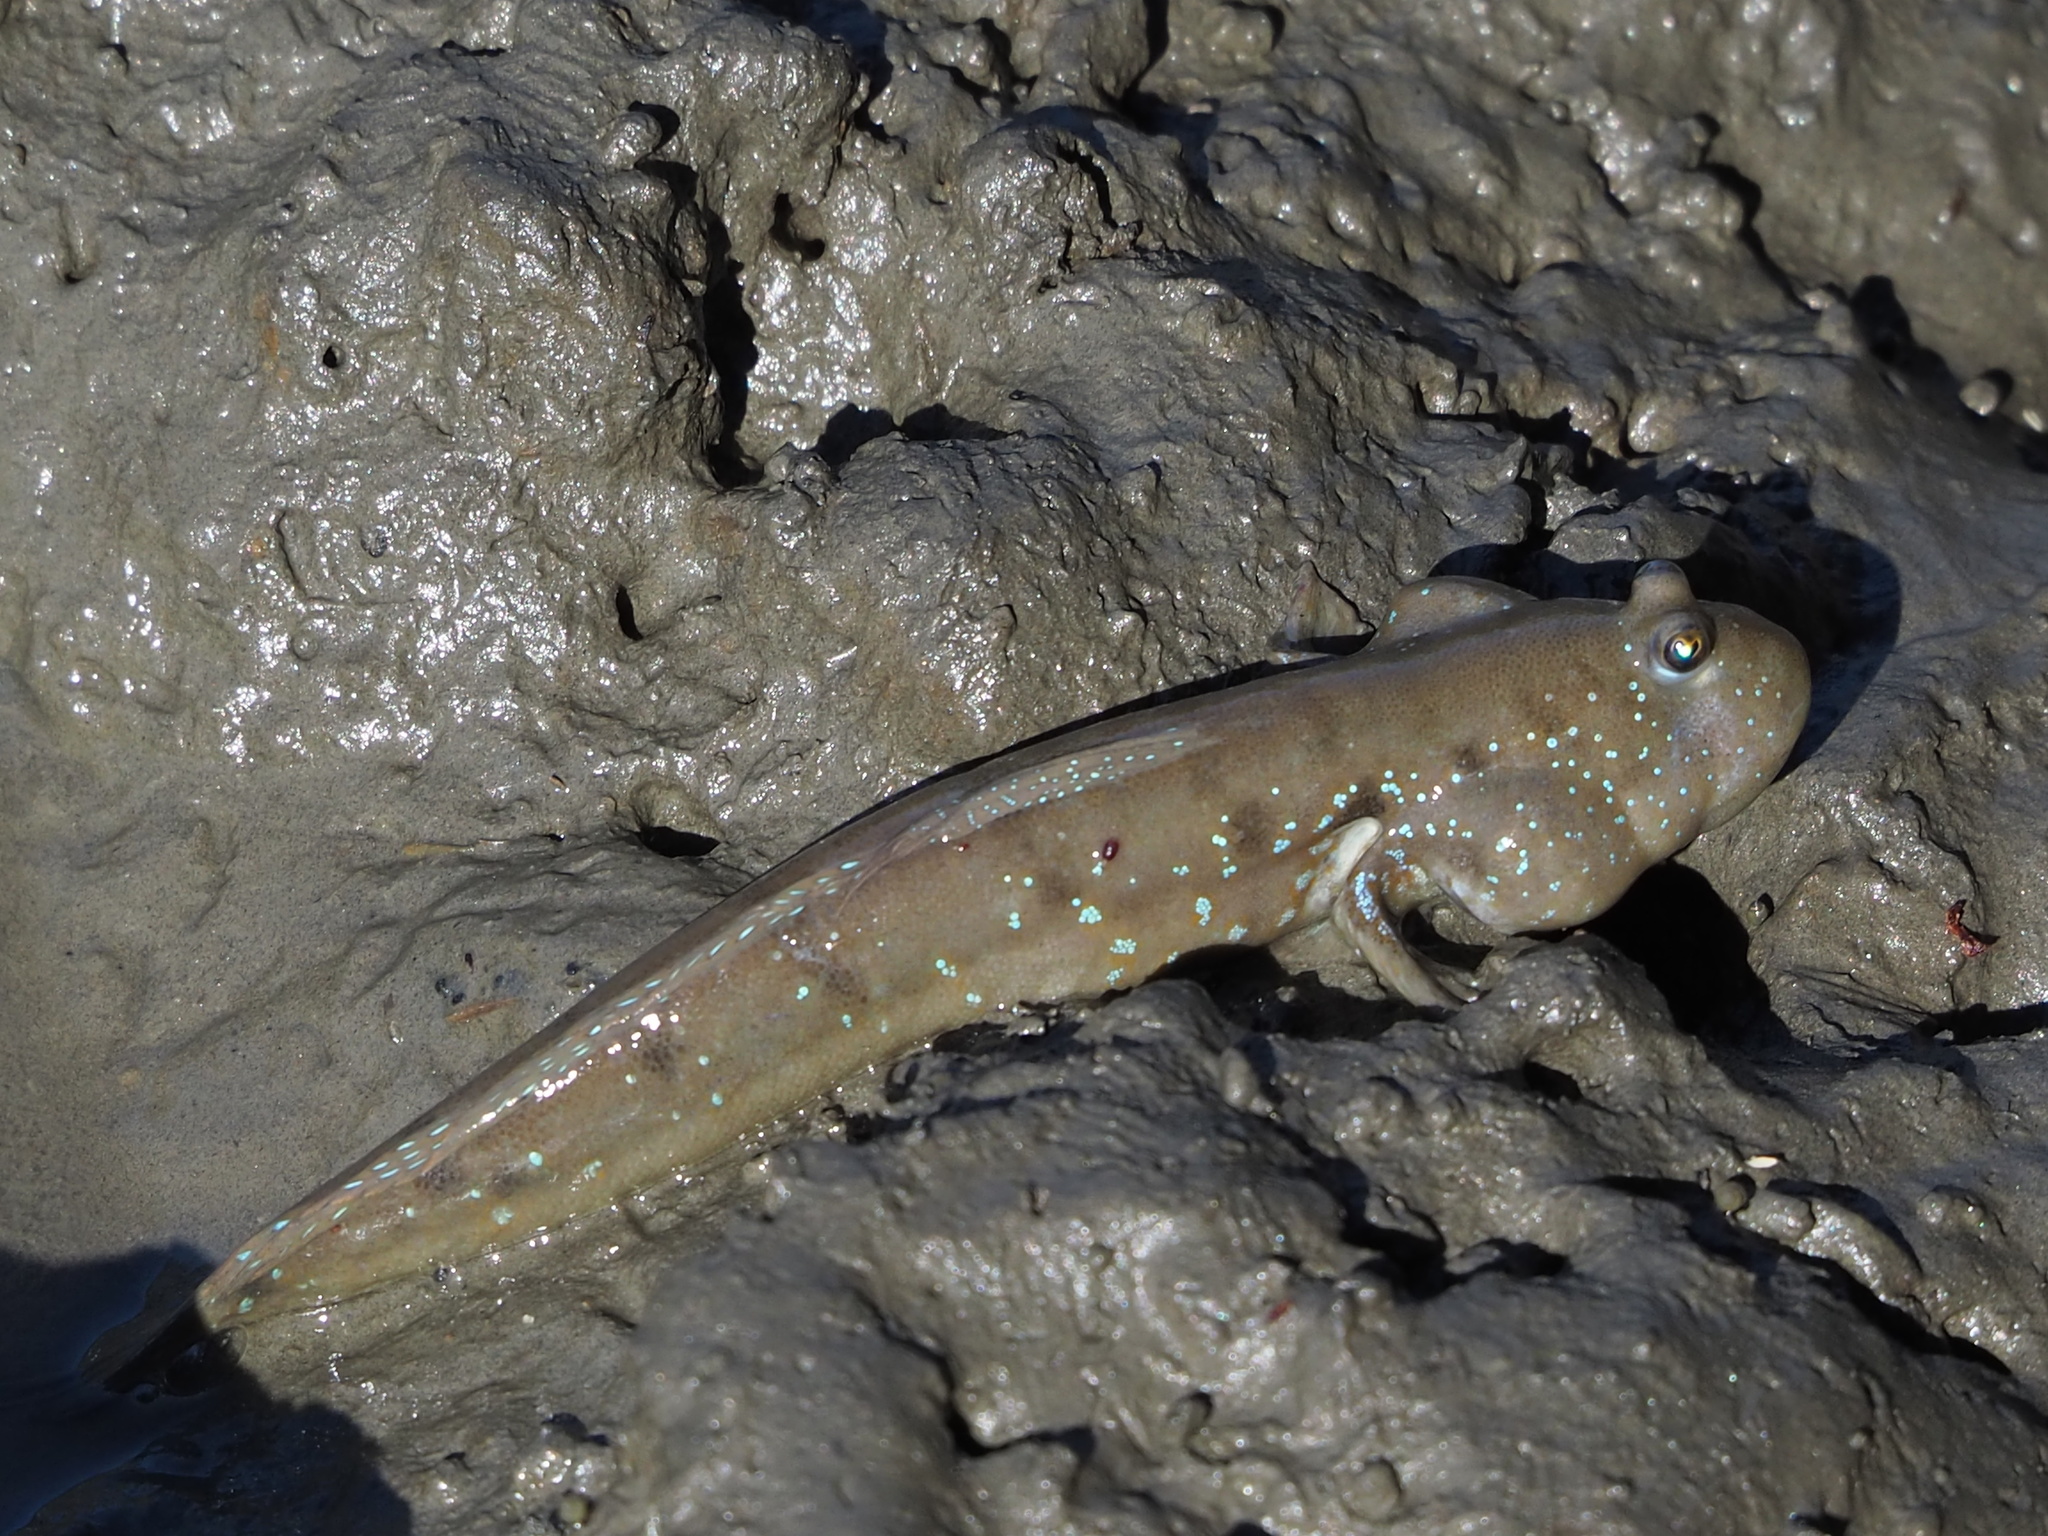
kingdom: Animalia
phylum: Chordata
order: Perciformes
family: Gobiidae
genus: Boleophthalmus
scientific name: Boleophthalmus pectinirostris
